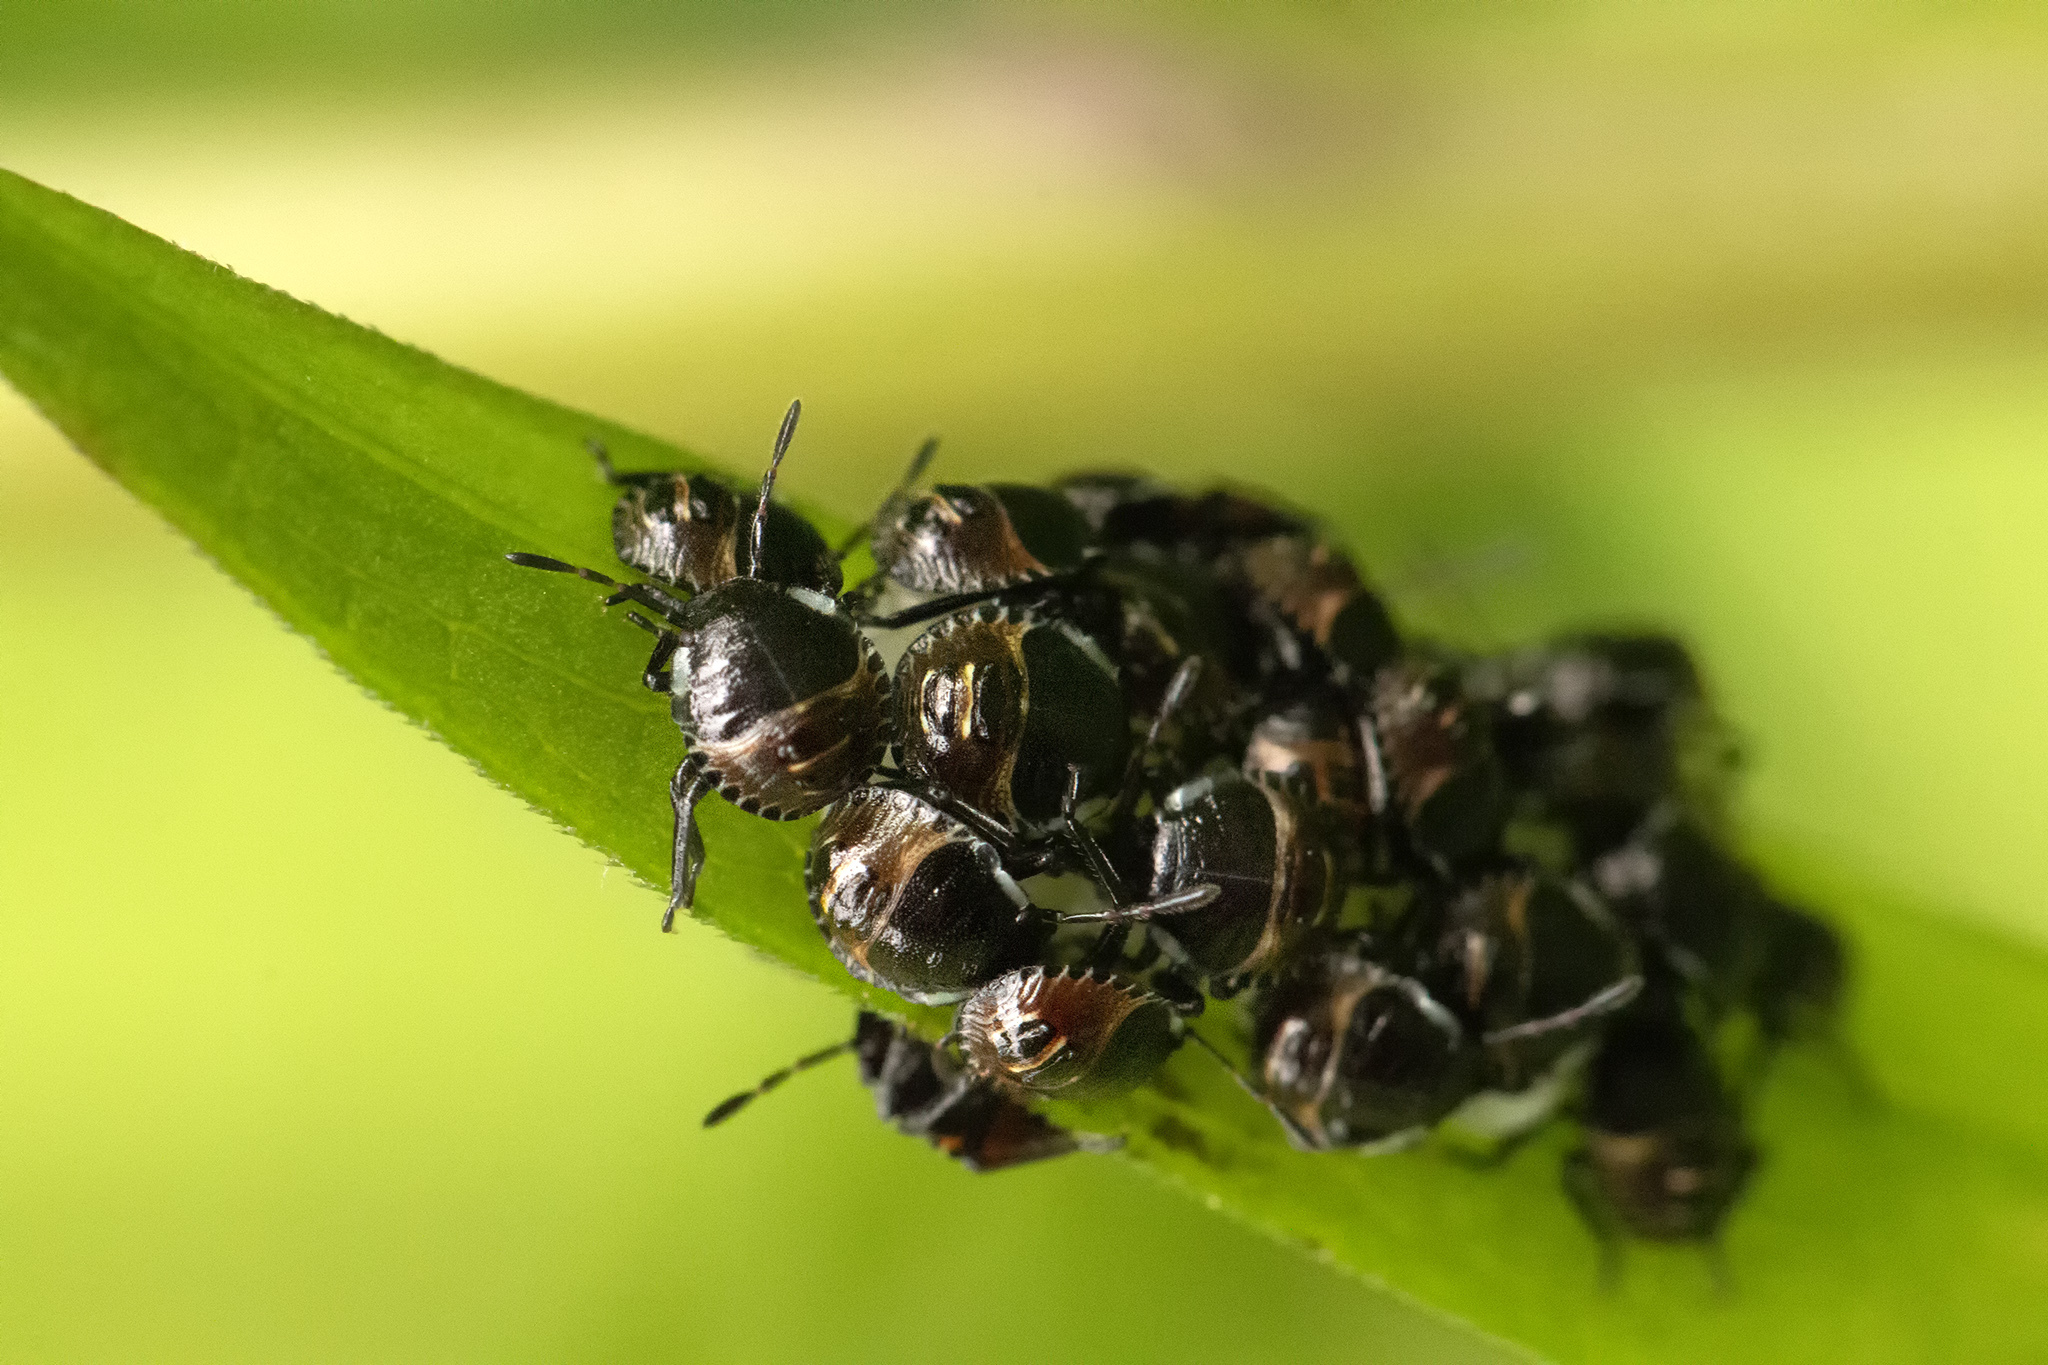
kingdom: Animalia
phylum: Arthropoda
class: Insecta
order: Hemiptera
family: Pentatomidae
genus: Palomena
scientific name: Palomena prasina
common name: Green shieldbug
